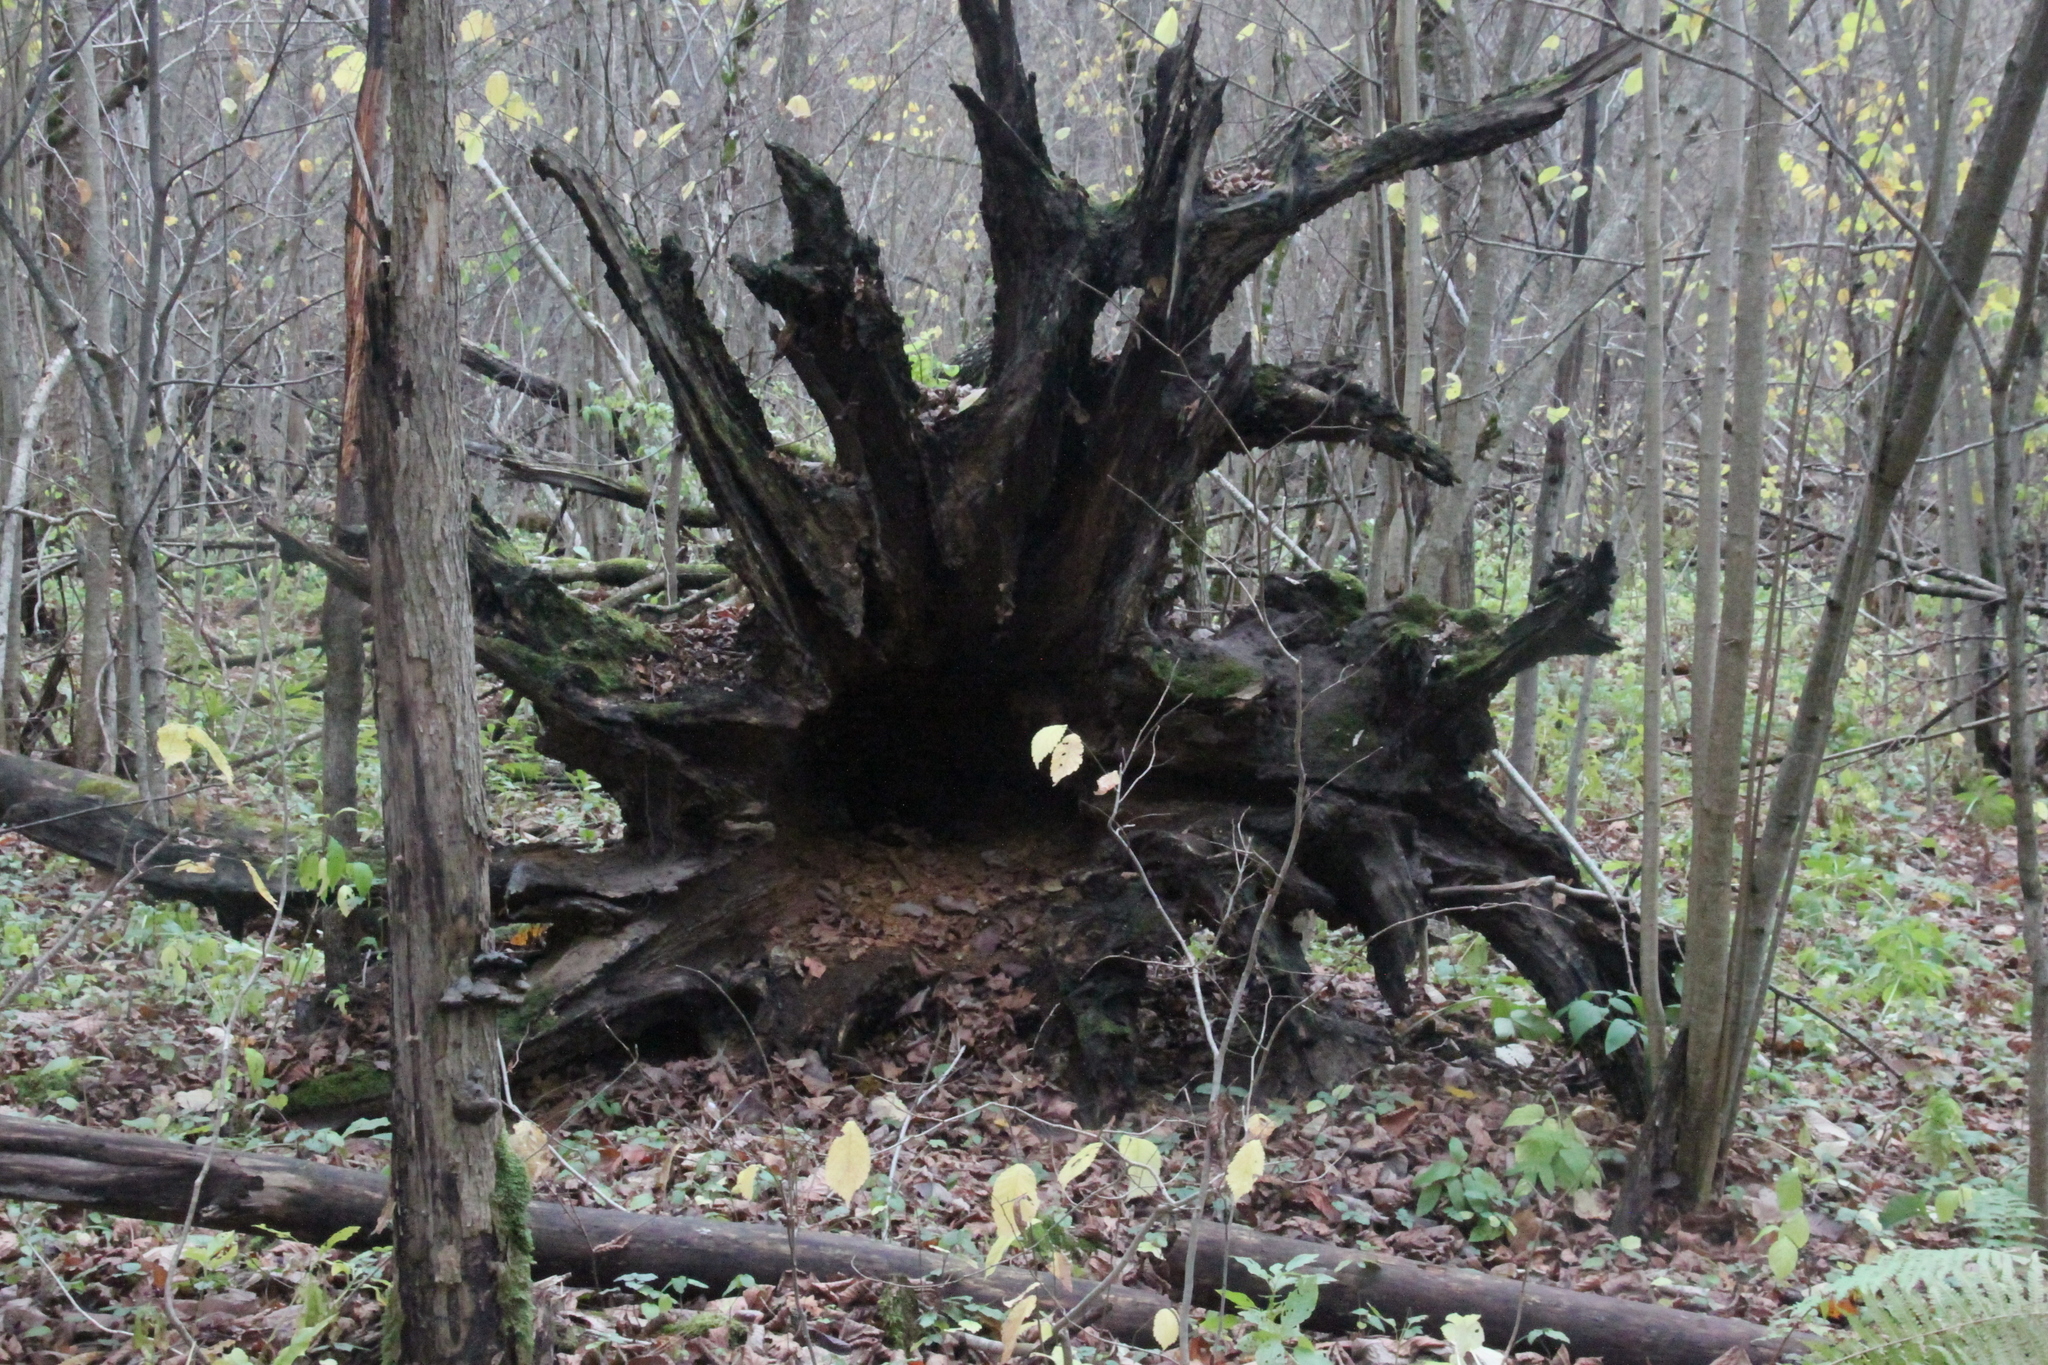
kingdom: Plantae
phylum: Tracheophyta
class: Magnoliopsida
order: Fagales
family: Fagaceae
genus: Quercus
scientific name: Quercus robur
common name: Pedunculate oak
